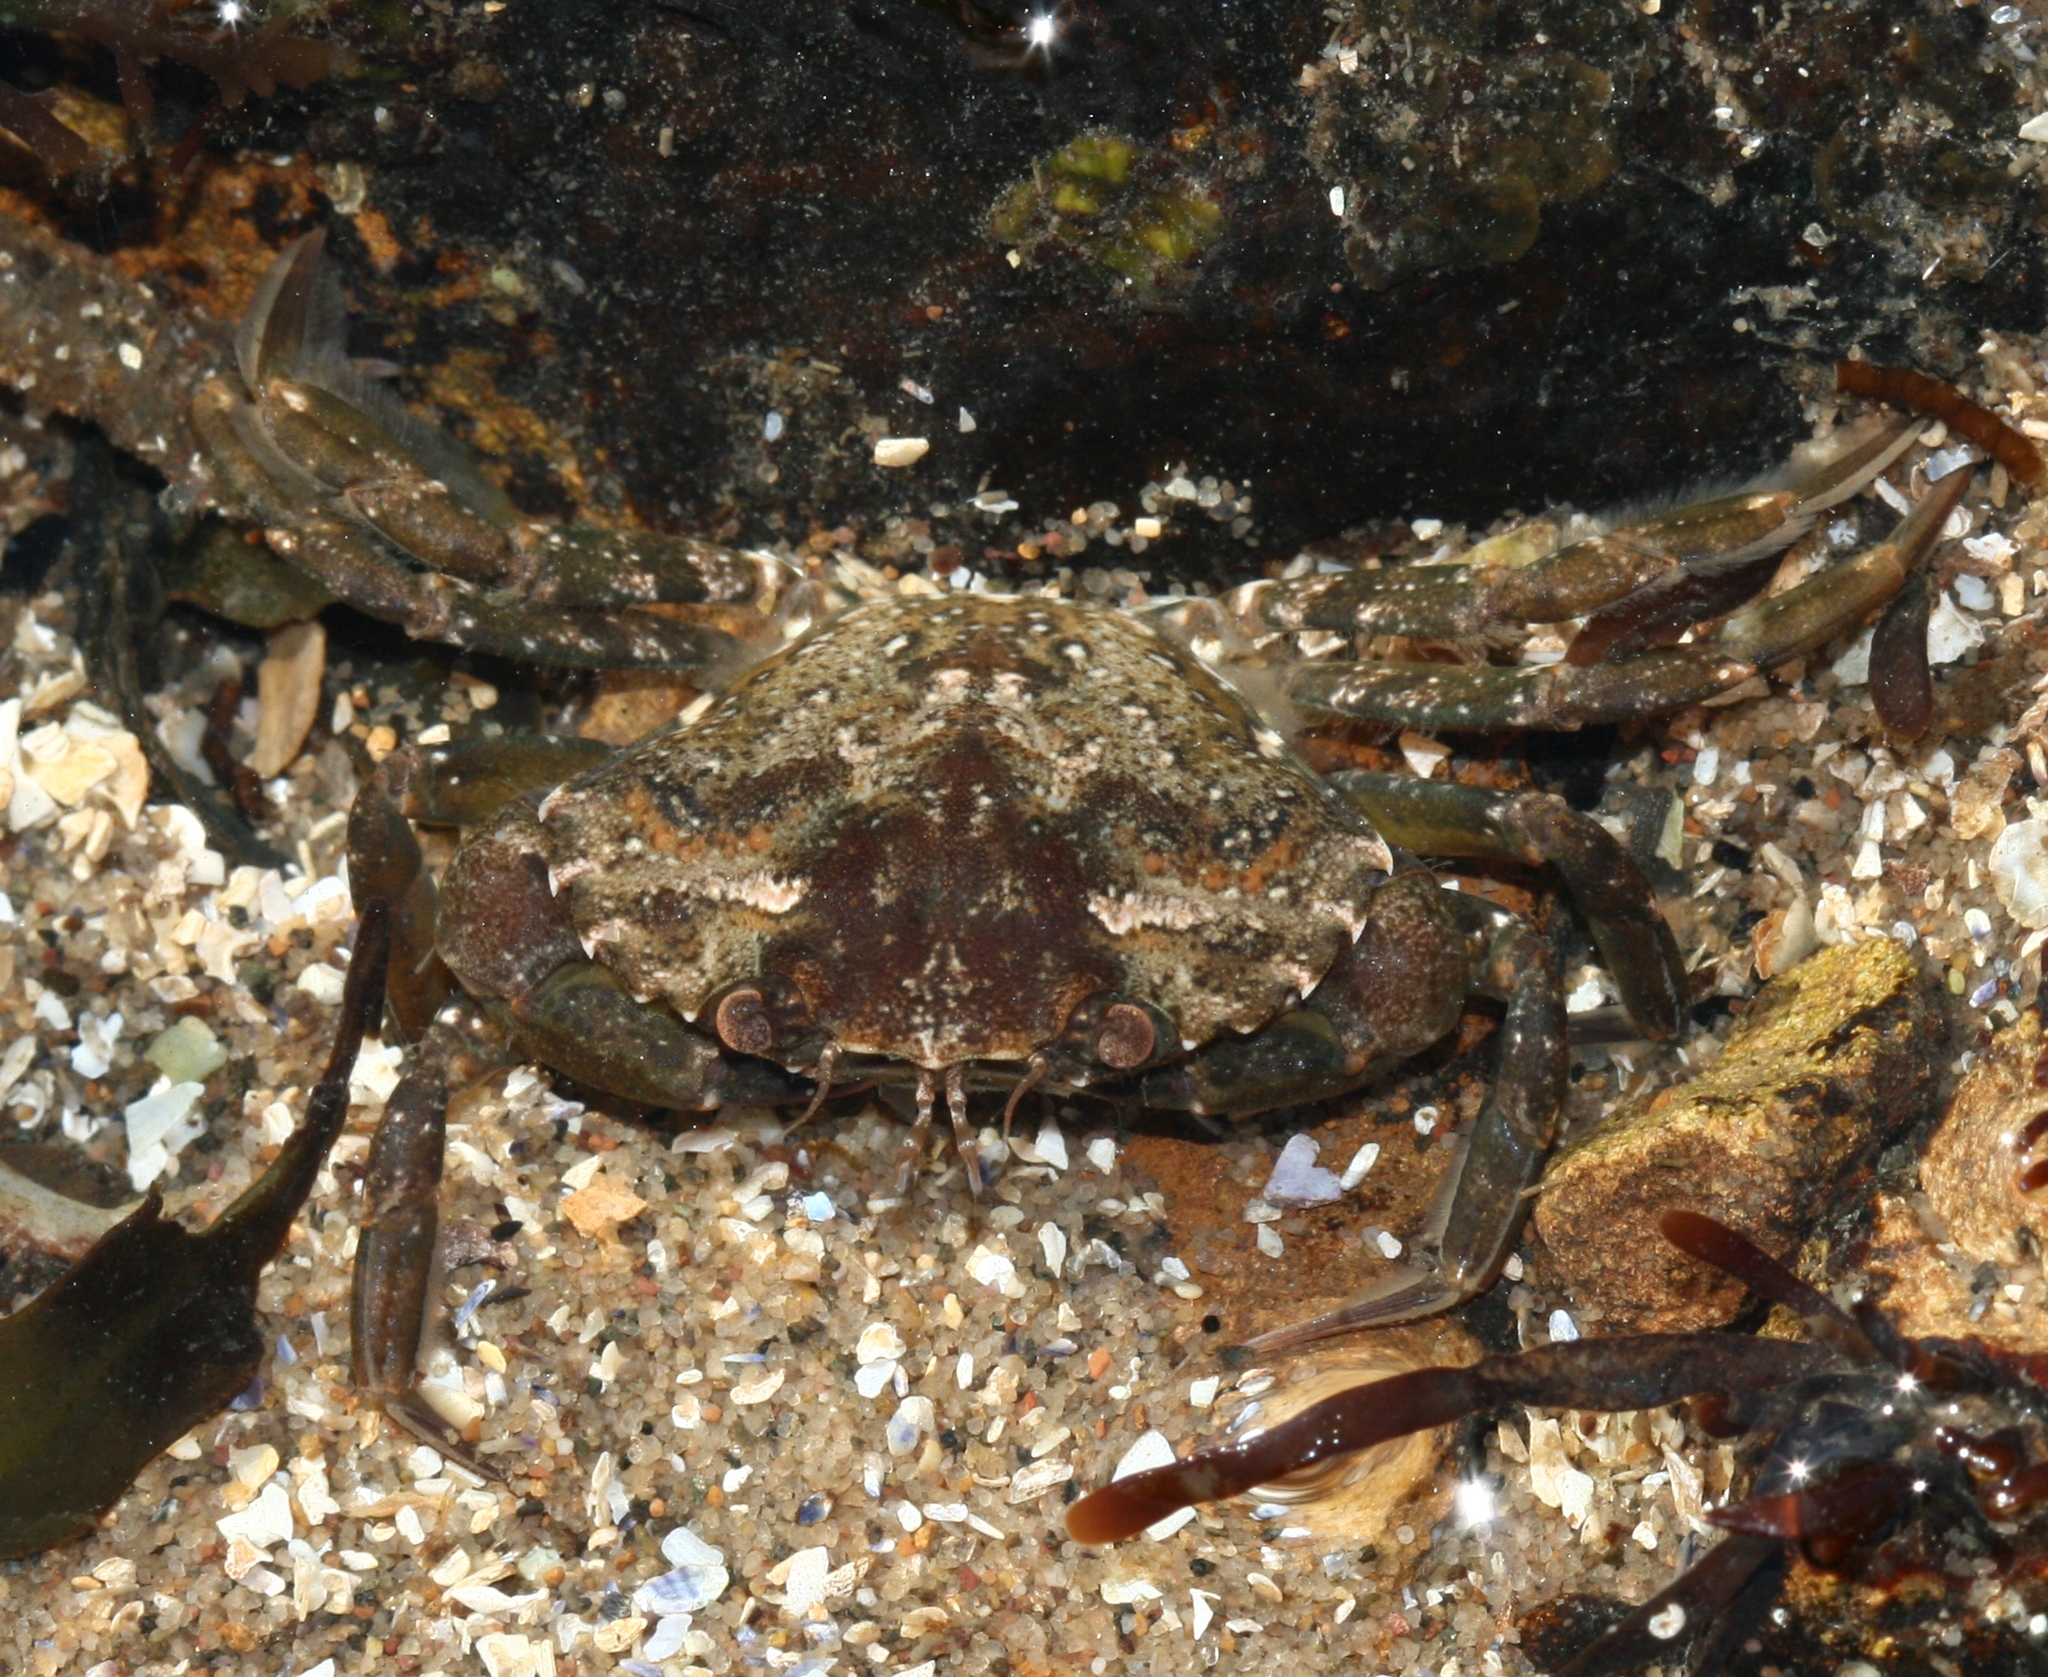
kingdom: Animalia
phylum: Arthropoda
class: Malacostraca
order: Decapoda
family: Carcinidae
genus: Carcinus
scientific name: Carcinus maenas
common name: European green crab
